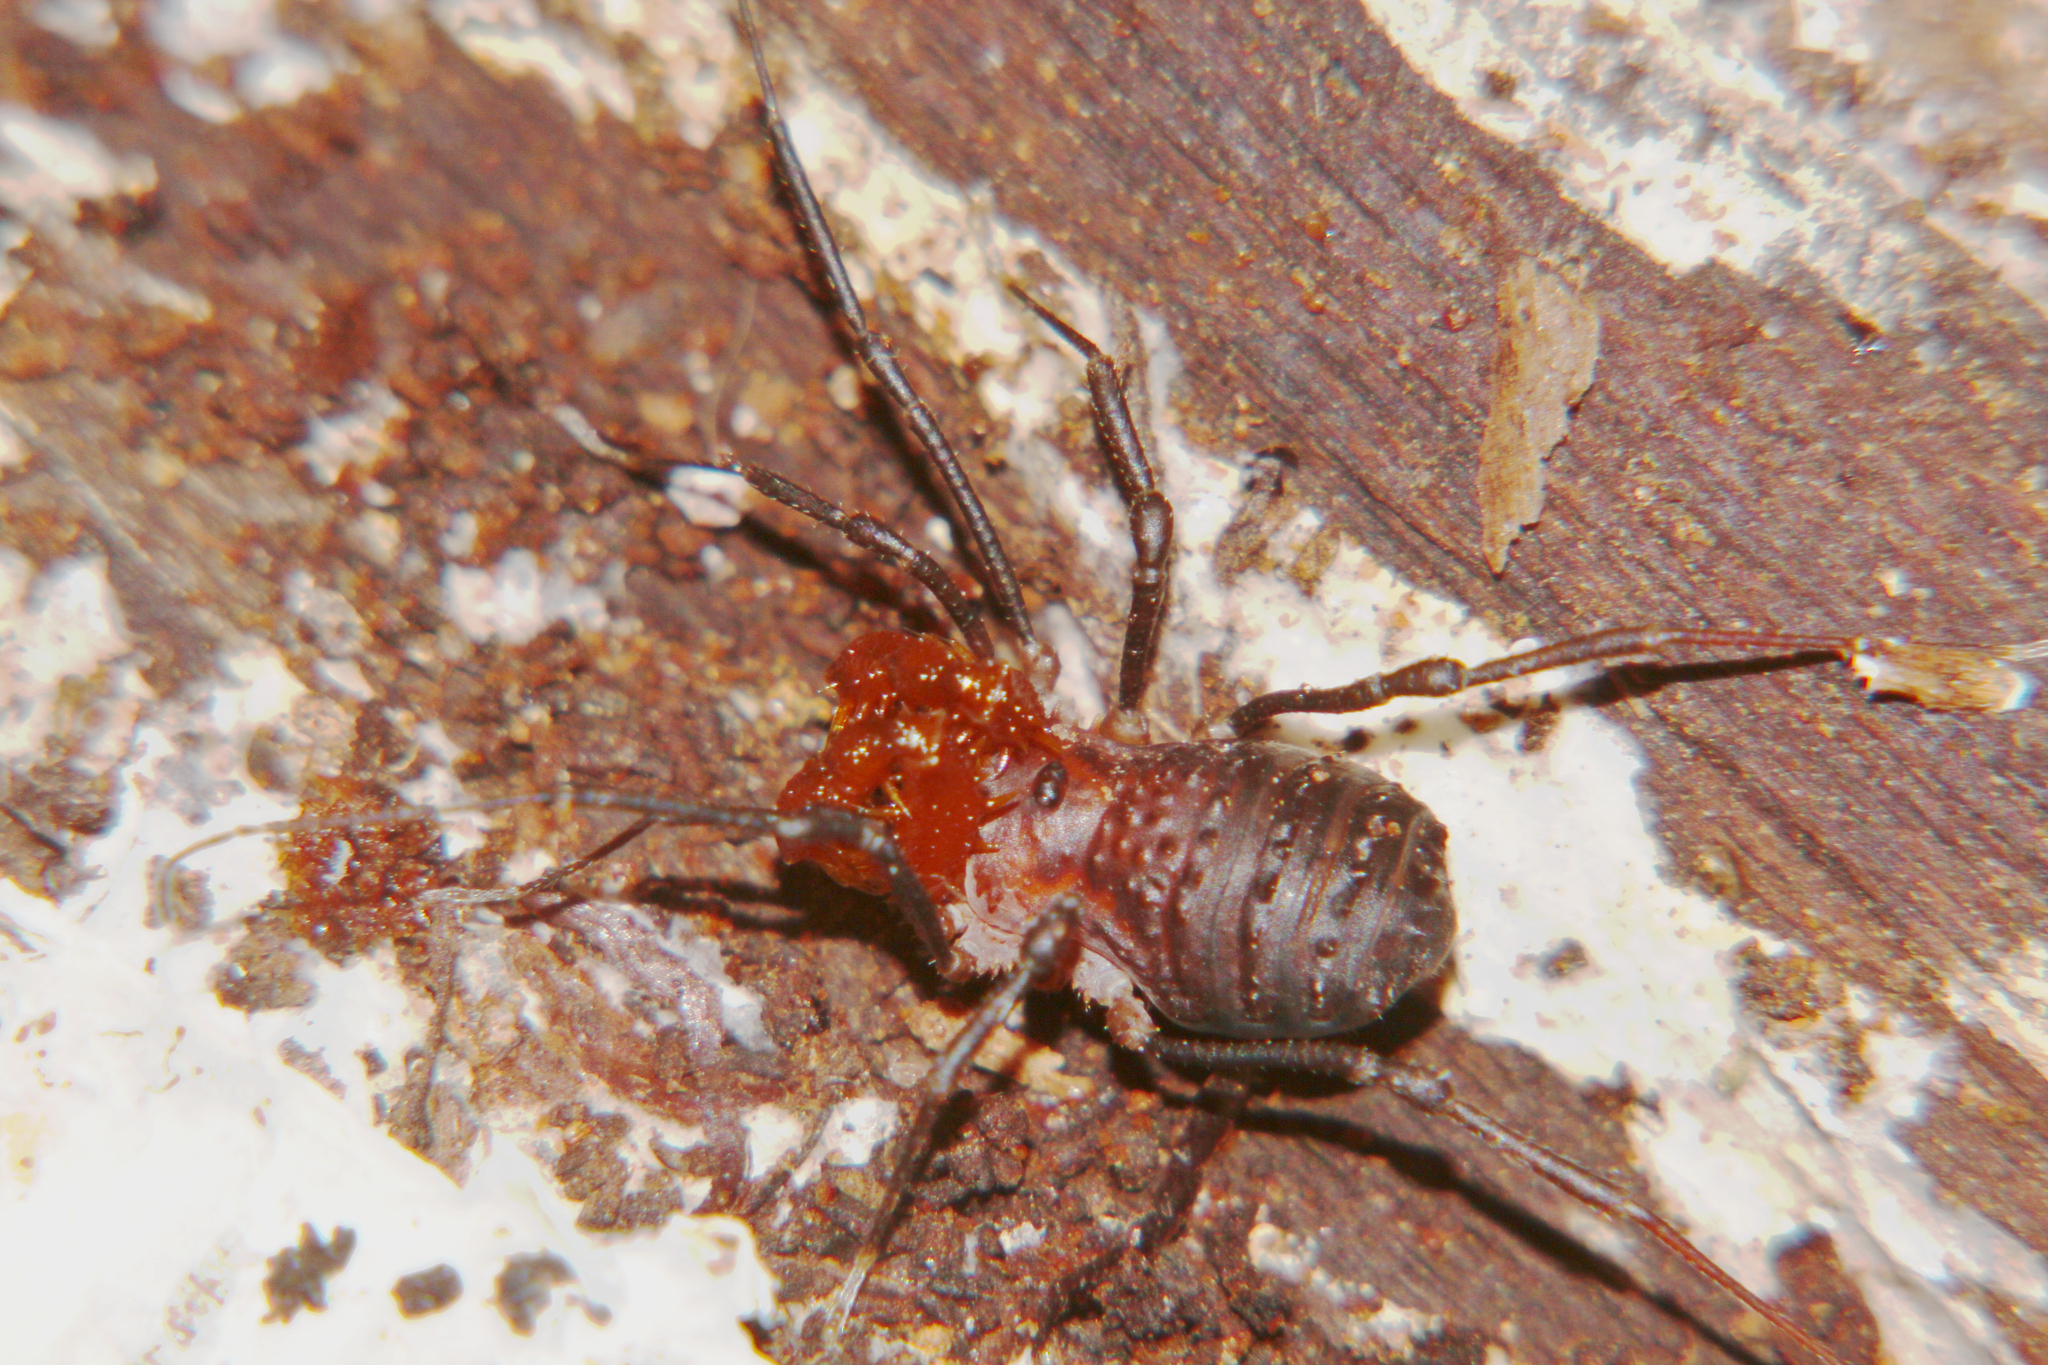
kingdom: Animalia
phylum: Arthropoda
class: Arachnida
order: Opiliones
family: Triaenonychidae
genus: Sorensenella
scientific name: Sorensenella prehensor
